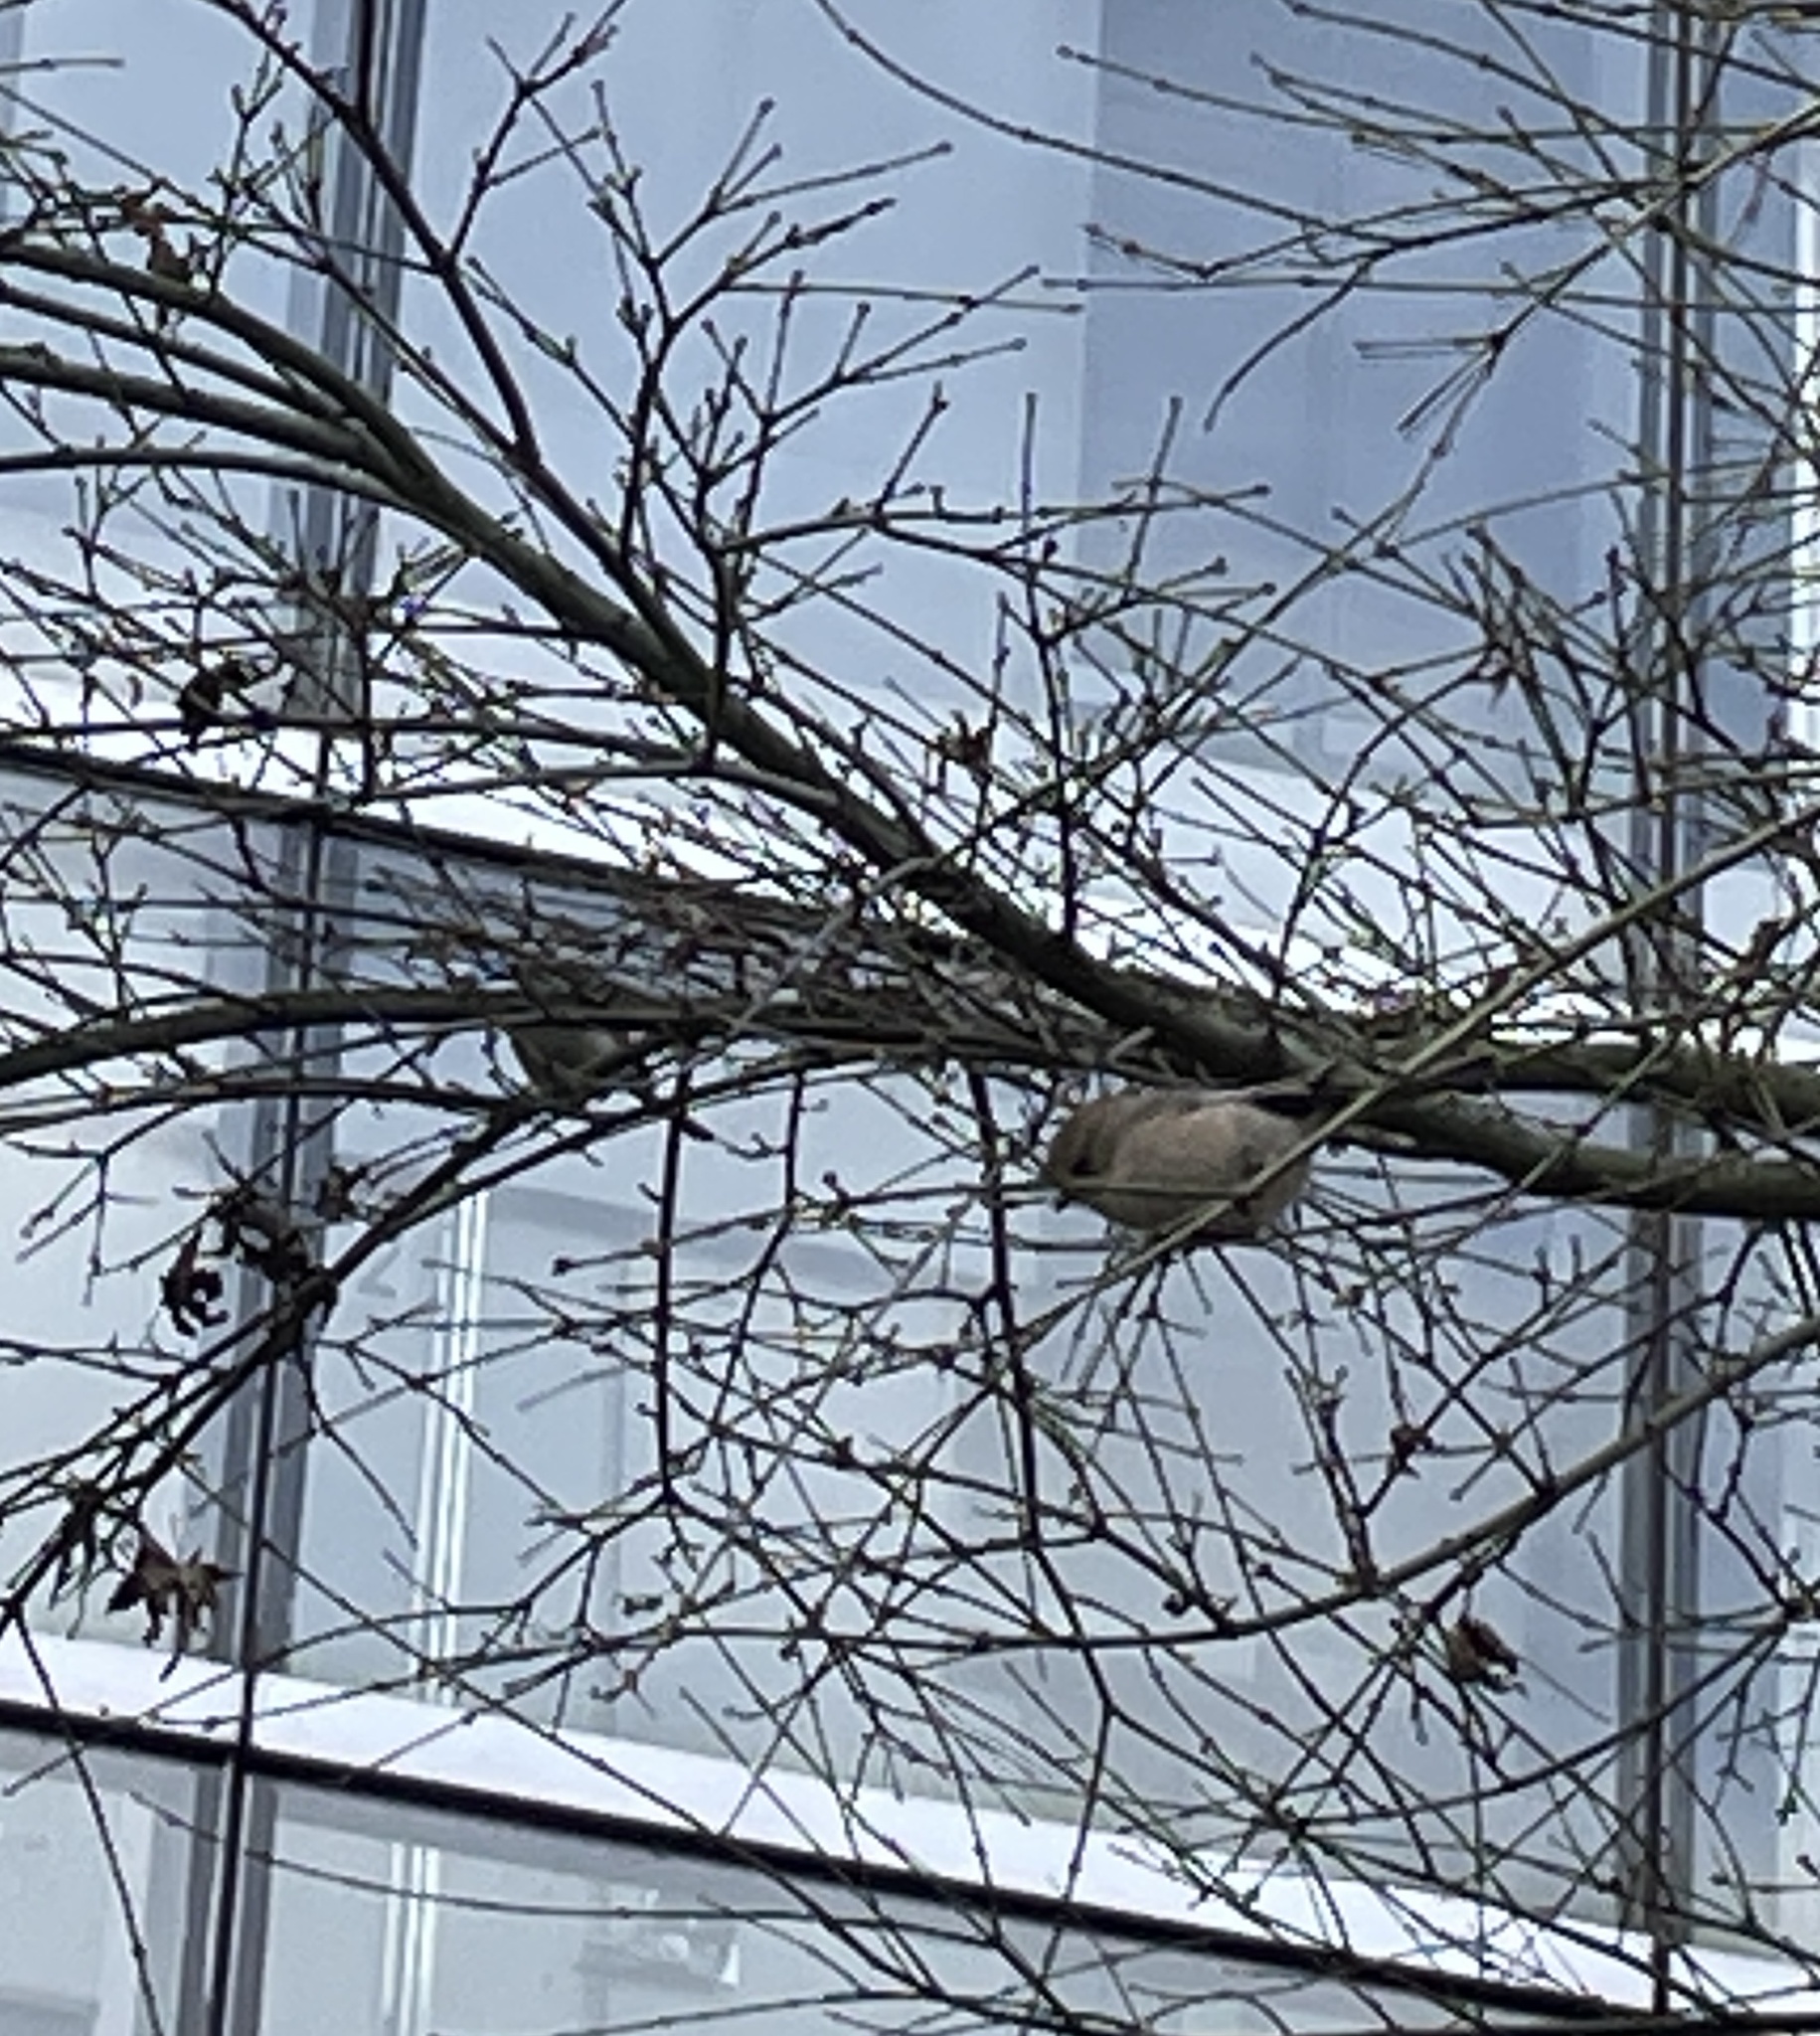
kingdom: Animalia
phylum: Chordata
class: Aves
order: Passeriformes
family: Aegithalidae
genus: Psaltriparus
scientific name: Psaltriparus minimus
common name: American bushtit
